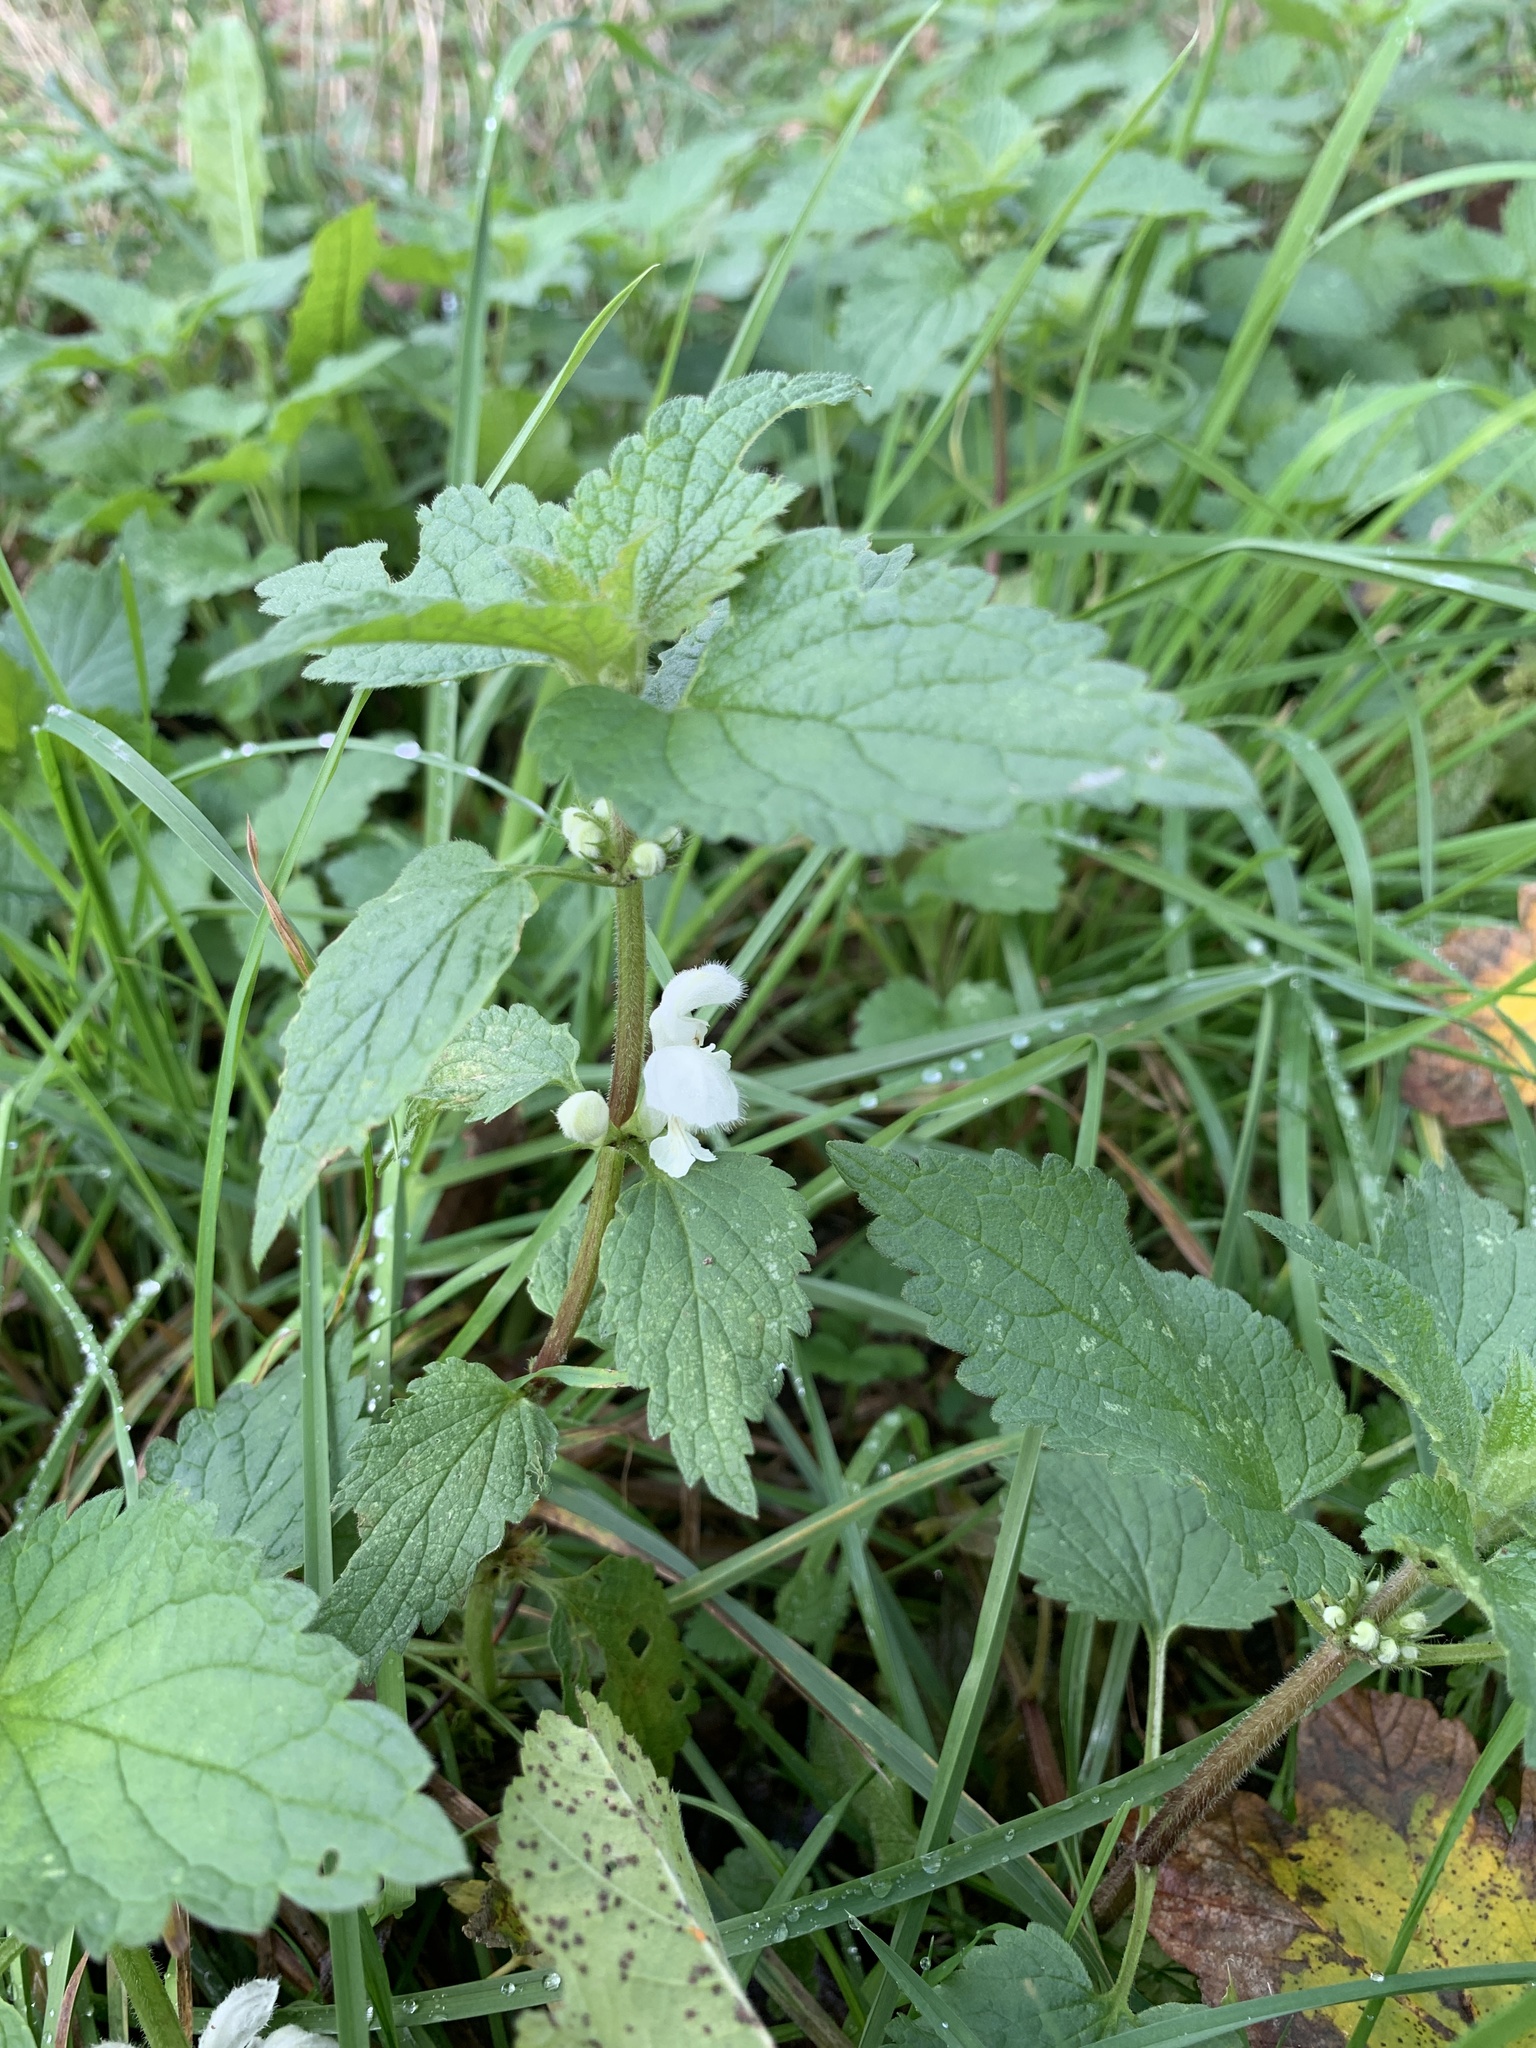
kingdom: Plantae
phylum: Tracheophyta
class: Magnoliopsida
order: Lamiales
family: Lamiaceae
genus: Lamium
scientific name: Lamium album
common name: White dead-nettle
